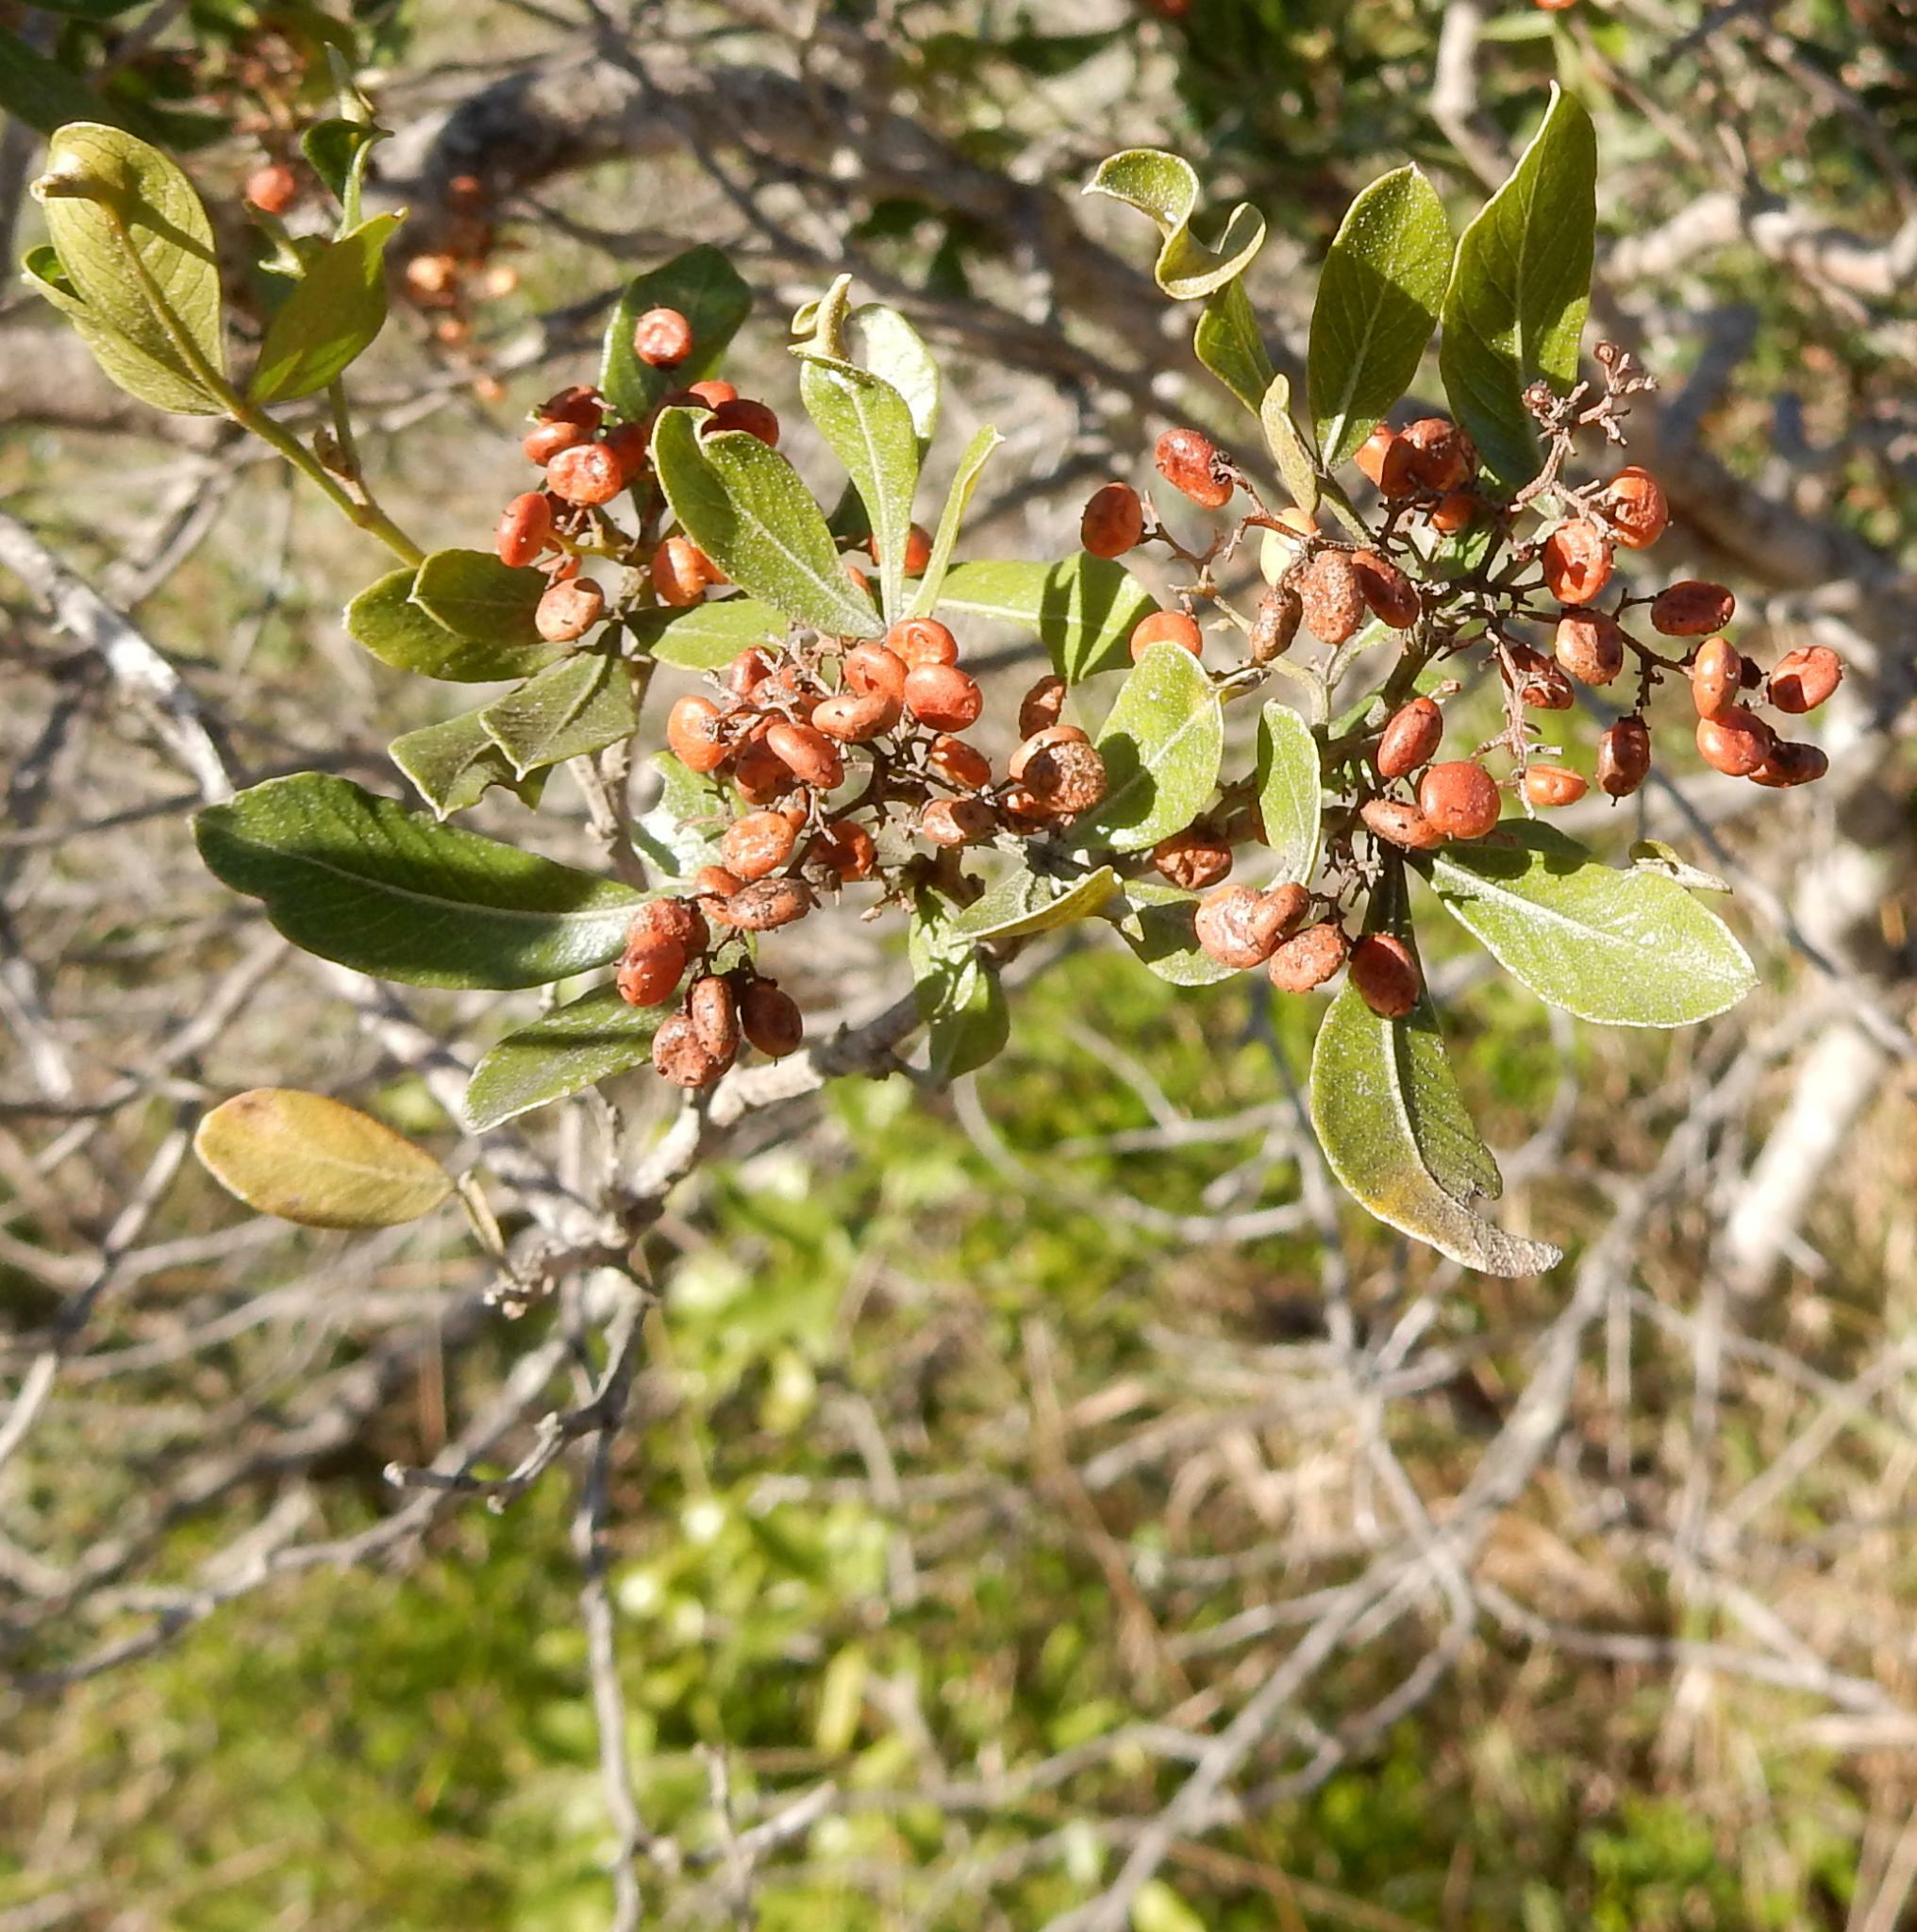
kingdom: Plantae
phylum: Tracheophyta
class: Magnoliopsida
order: Sapindales
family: Anacardiaceae
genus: Searsia
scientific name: Searsia pallens
